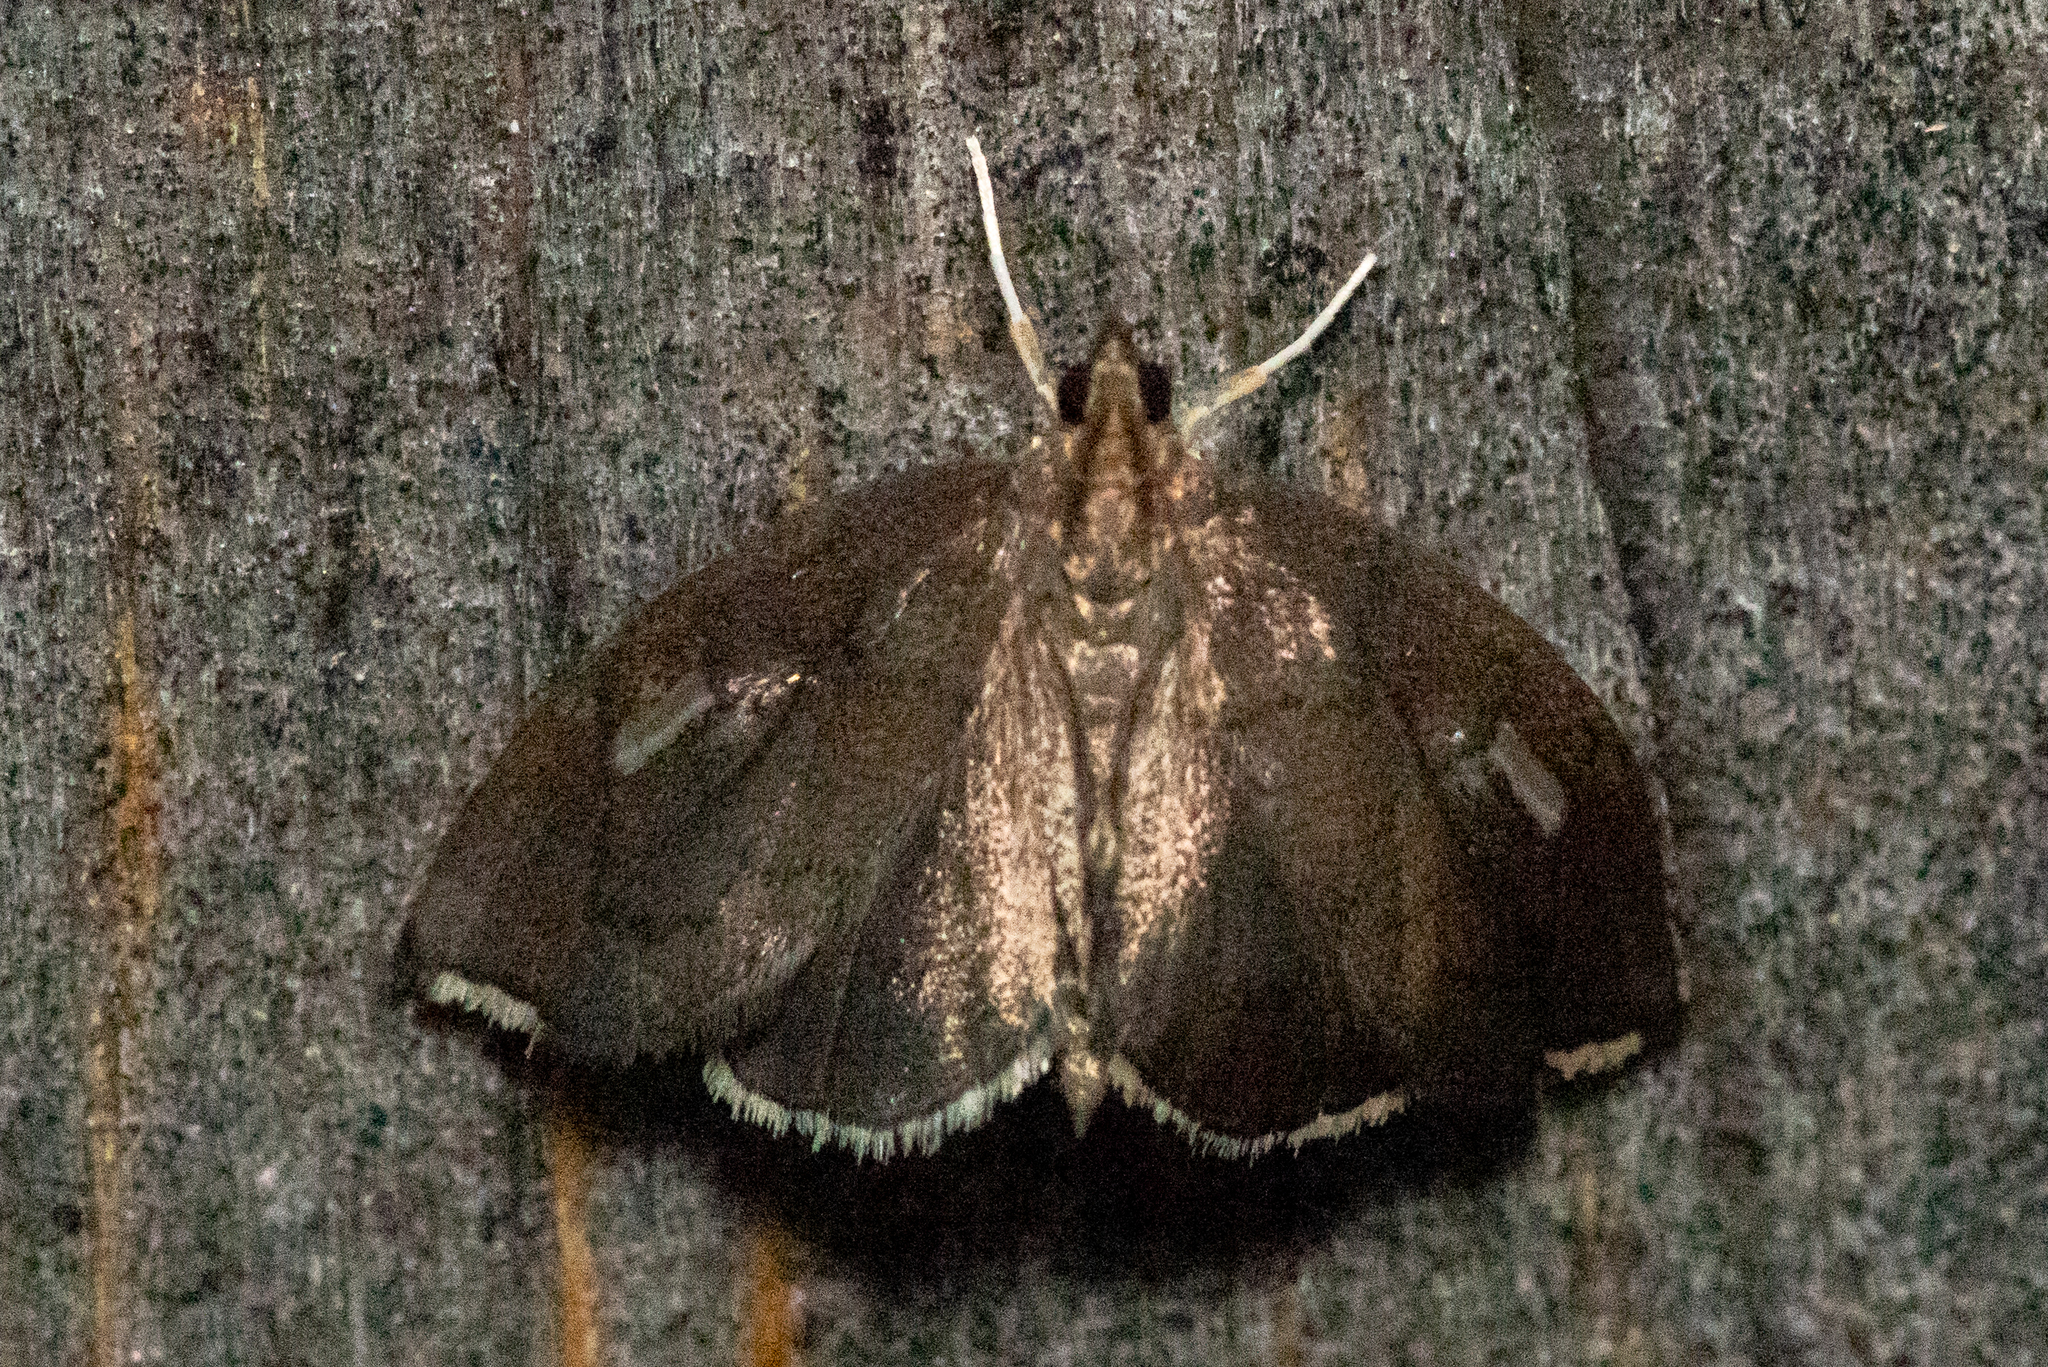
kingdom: Animalia
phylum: Arthropoda
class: Insecta
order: Lepidoptera
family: Crambidae
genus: Perispasta
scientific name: Perispasta caeculalis
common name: Titian peale's moth
